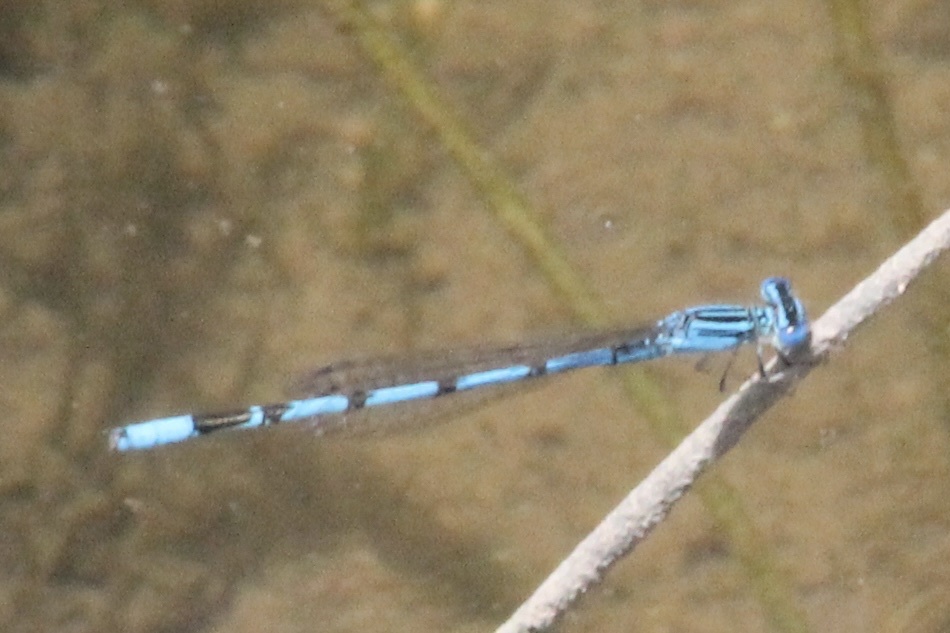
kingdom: Animalia
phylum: Arthropoda
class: Insecta
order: Odonata
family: Coenagrionidae
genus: Enallagma
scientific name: Enallagma basidens
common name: Double-striped bluet
